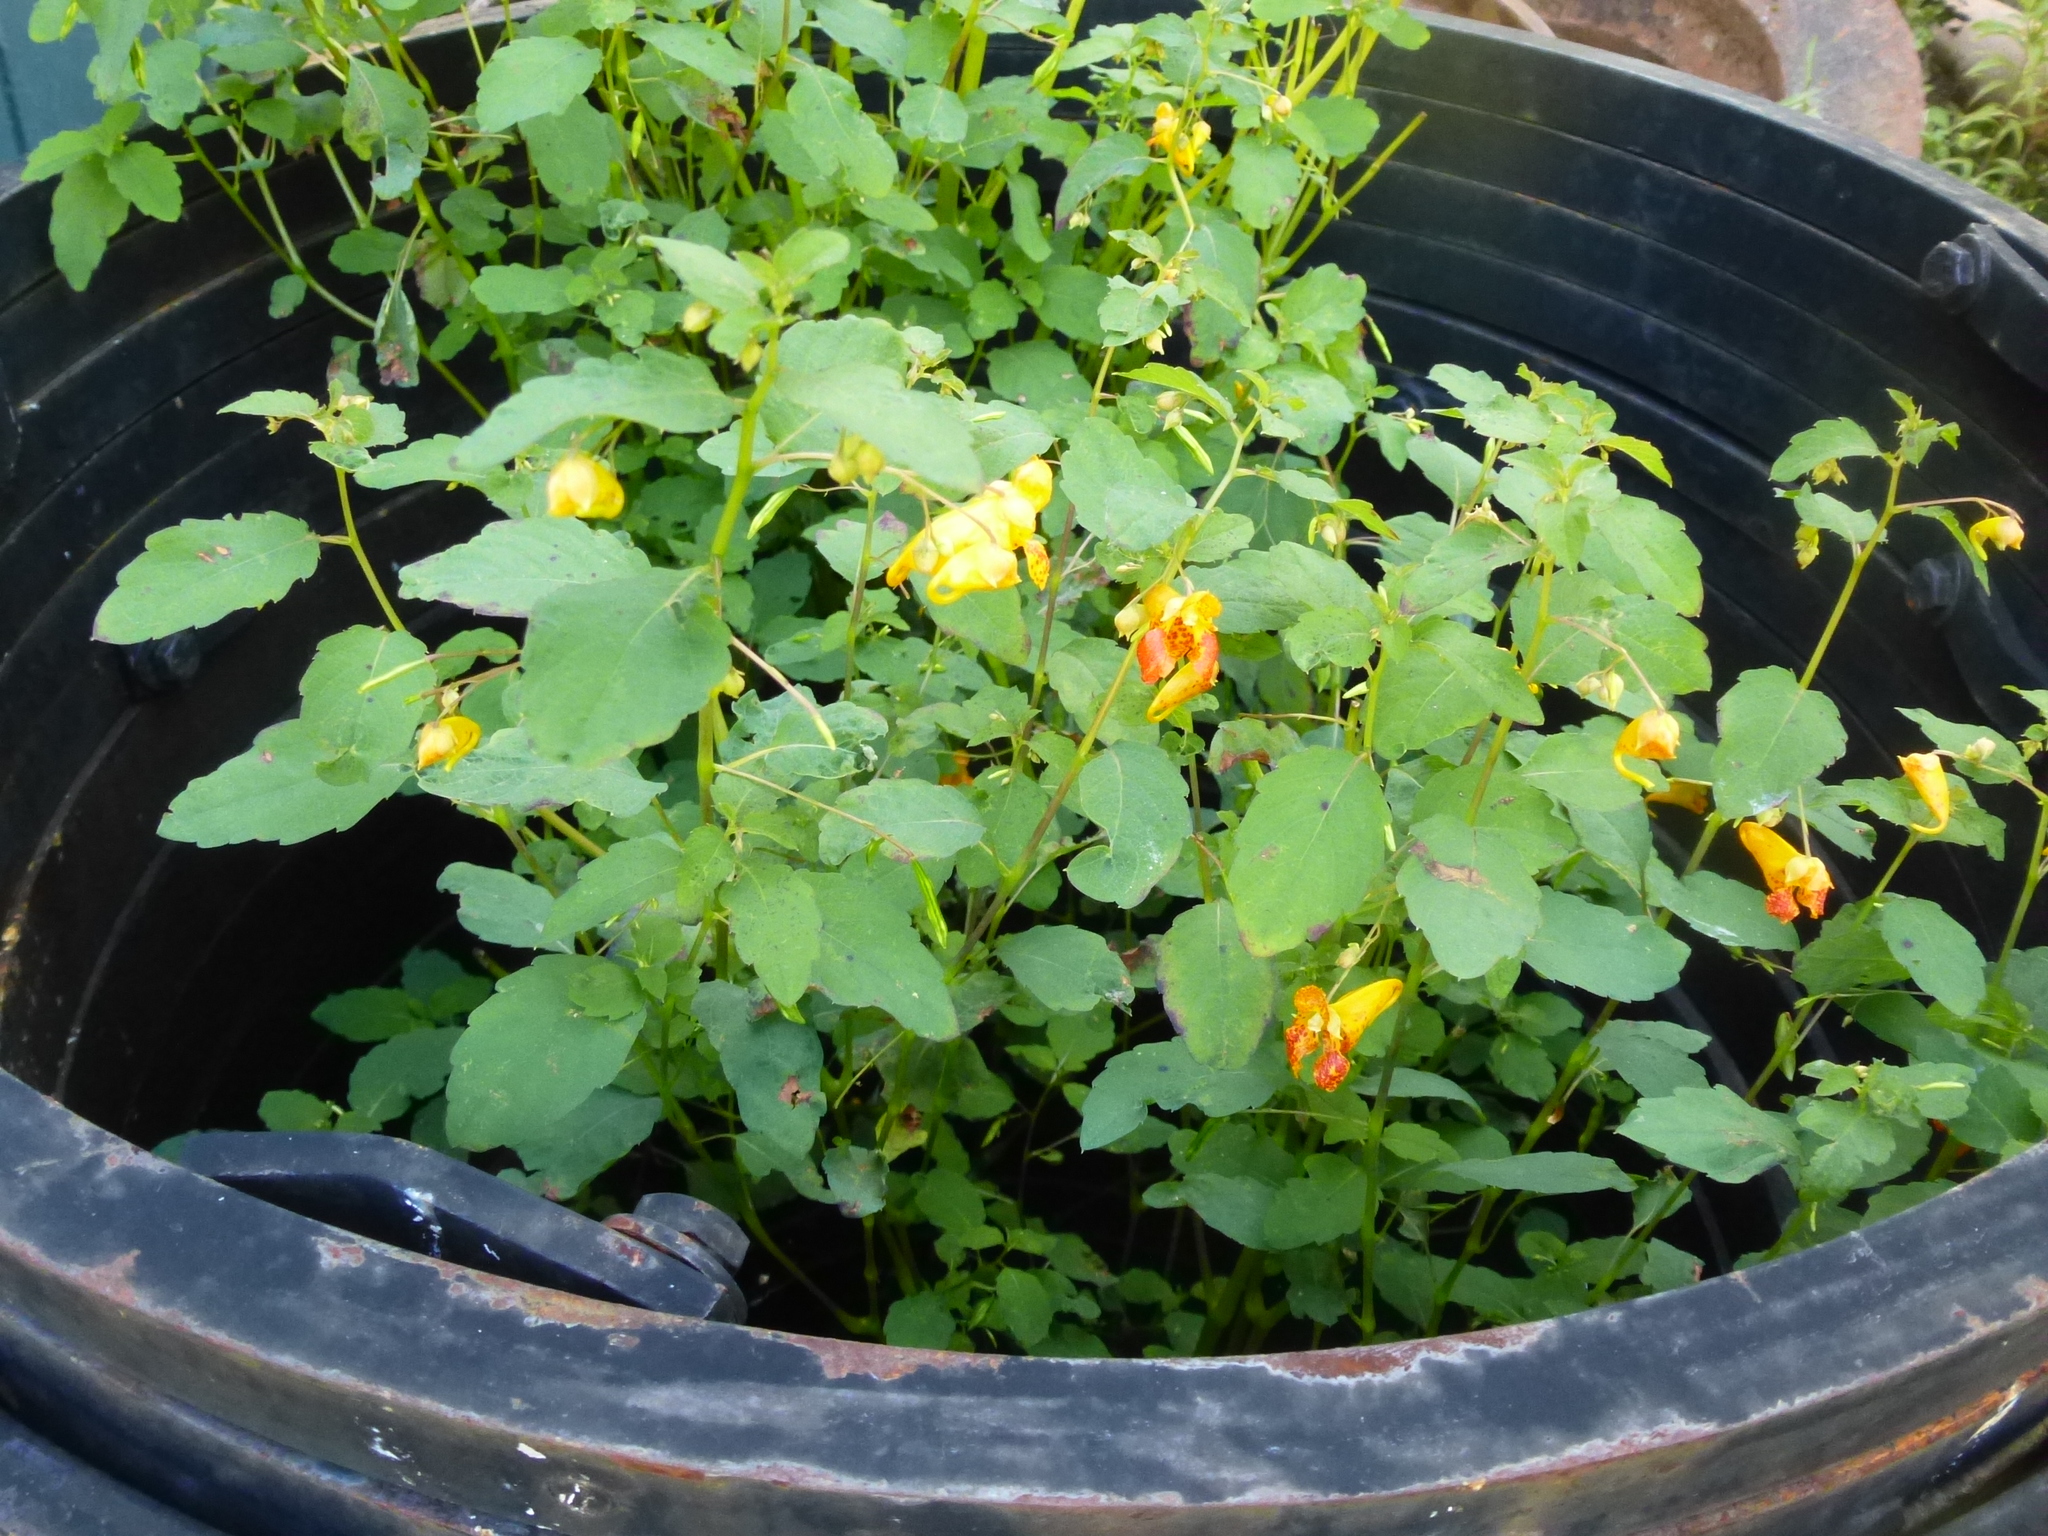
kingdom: Plantae
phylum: Tracheophyta
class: Magnoliopsida
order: Ericales
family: Balsaminaceae
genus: Impatiens
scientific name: Impatiens capensis
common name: Orange balsam
